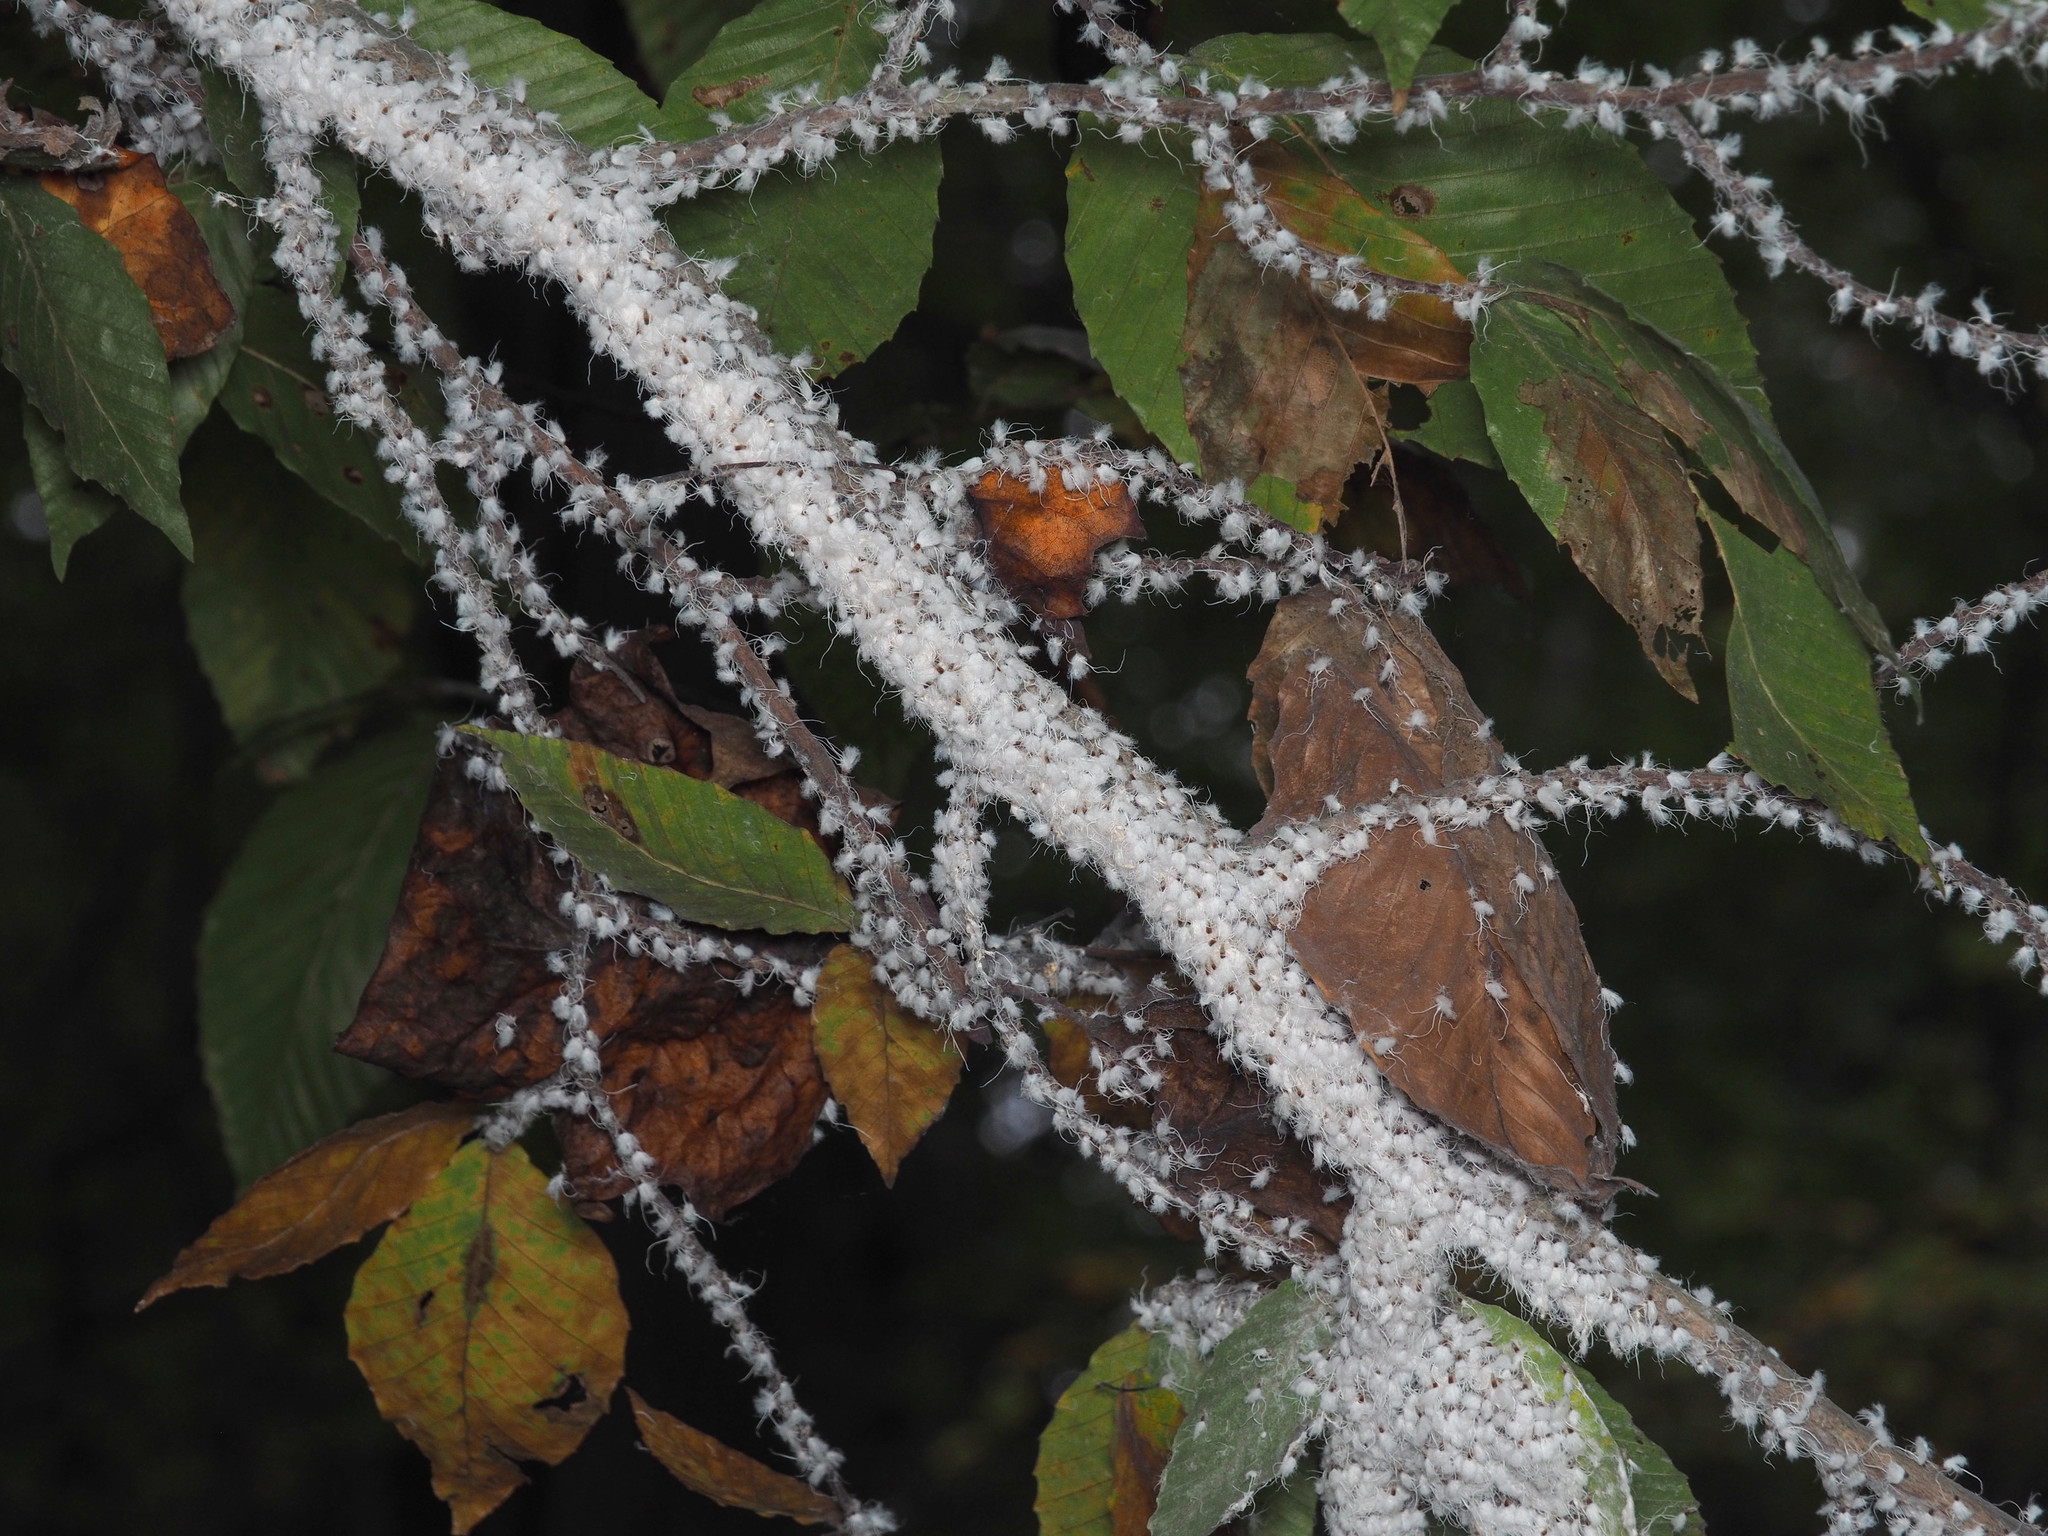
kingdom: Animalia
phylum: Arthropoda
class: Insecta
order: Hemiptera
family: Aphididae
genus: Grylloprociphilus
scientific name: Grylloprociphilus imbricator
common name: Beech blight aphid
